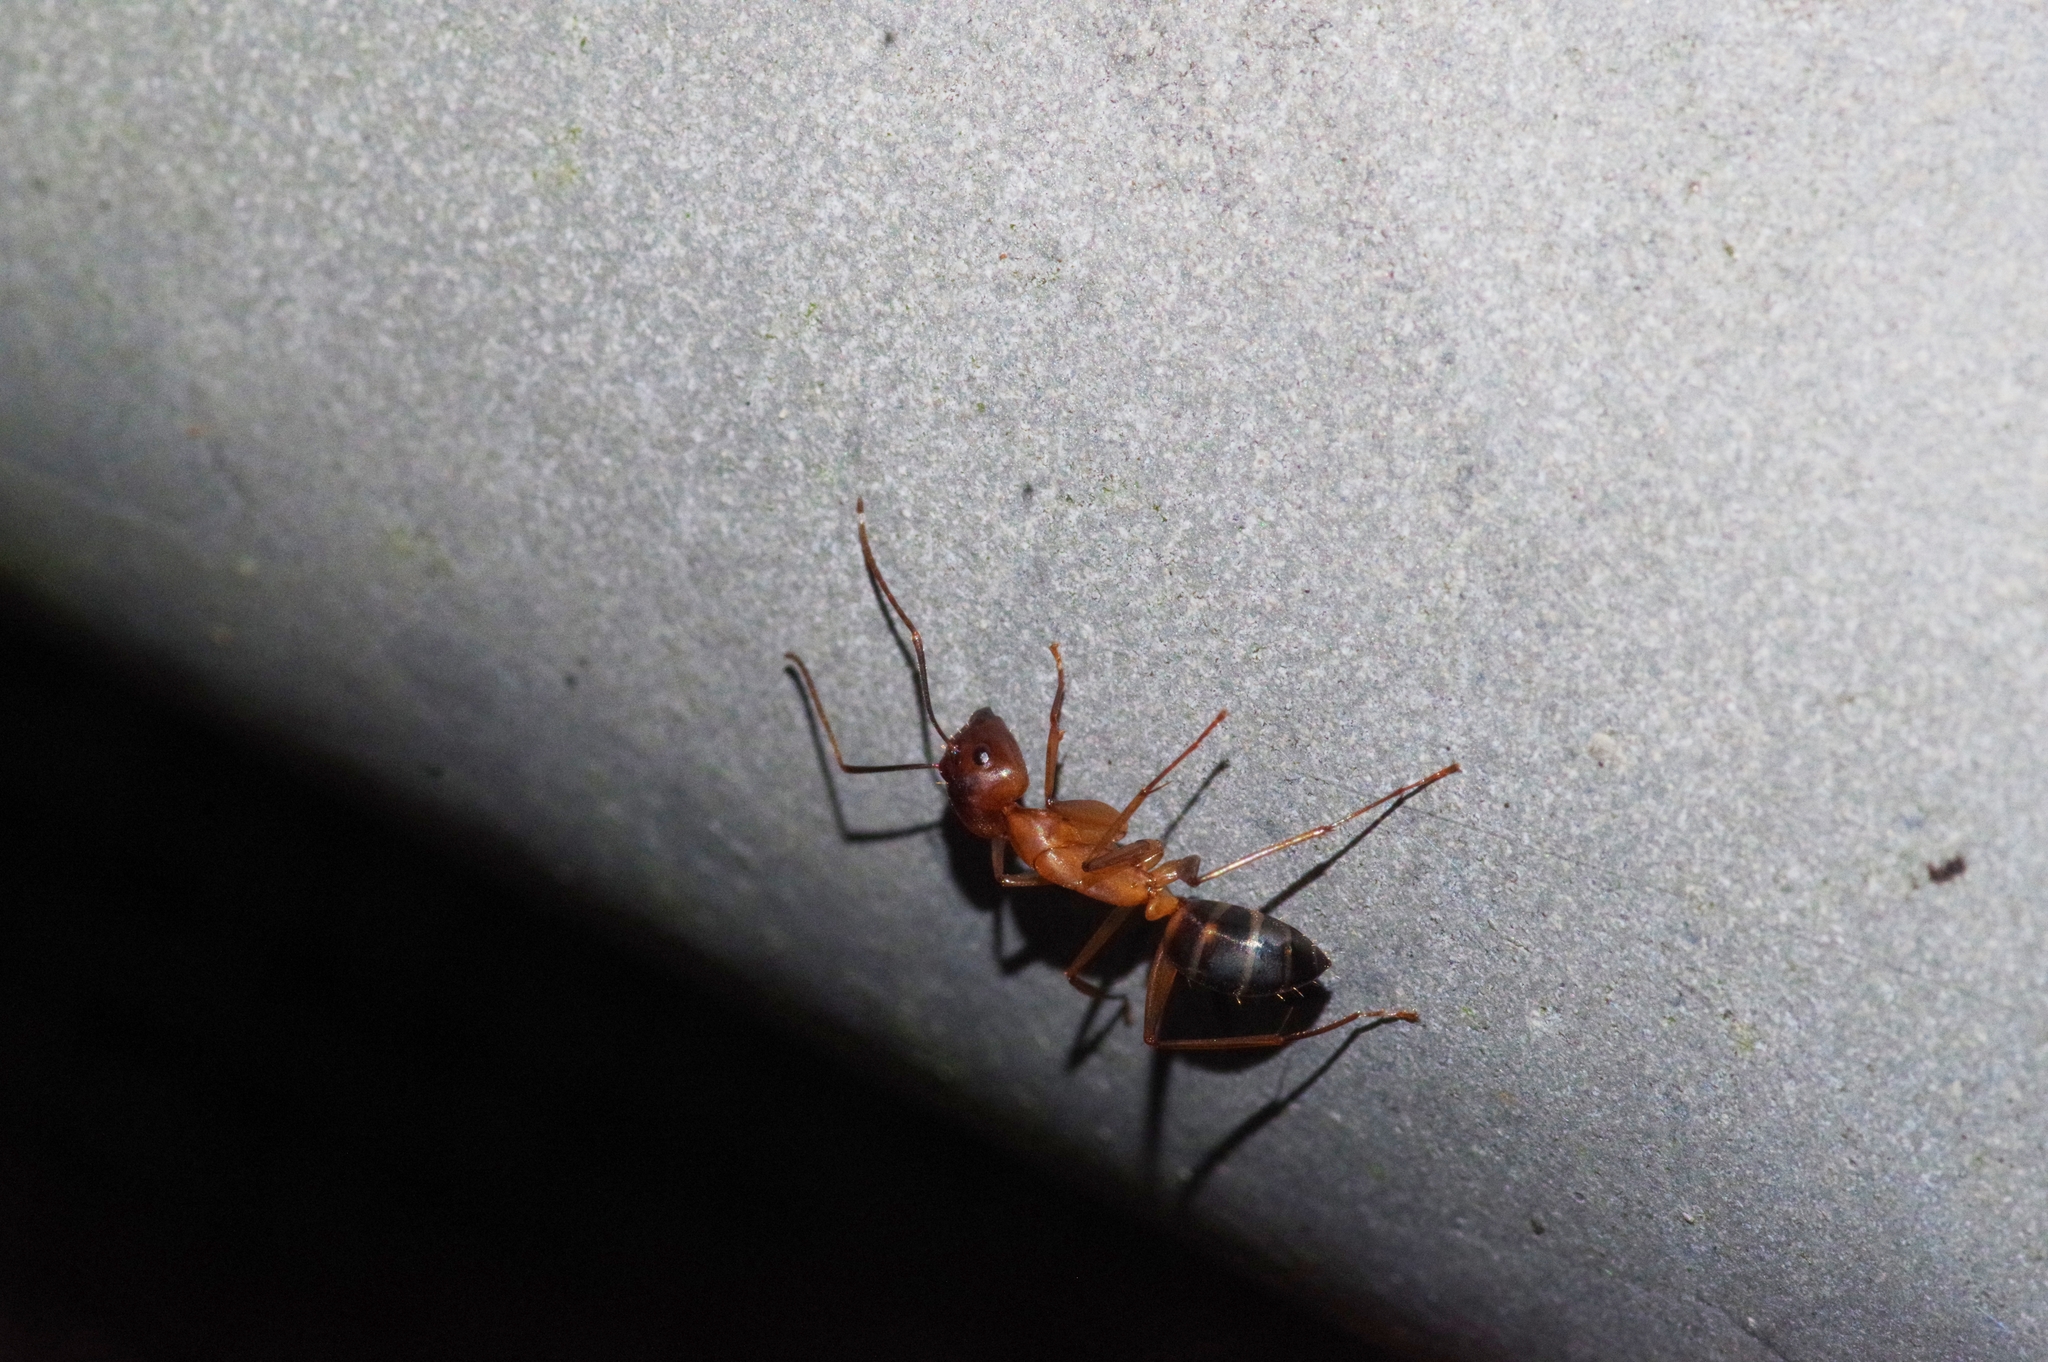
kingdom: Animalia
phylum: Arthropoda
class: Insecta
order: Hymenoptera
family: Formicidae
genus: Camponotus
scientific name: Camponotus devestitus
